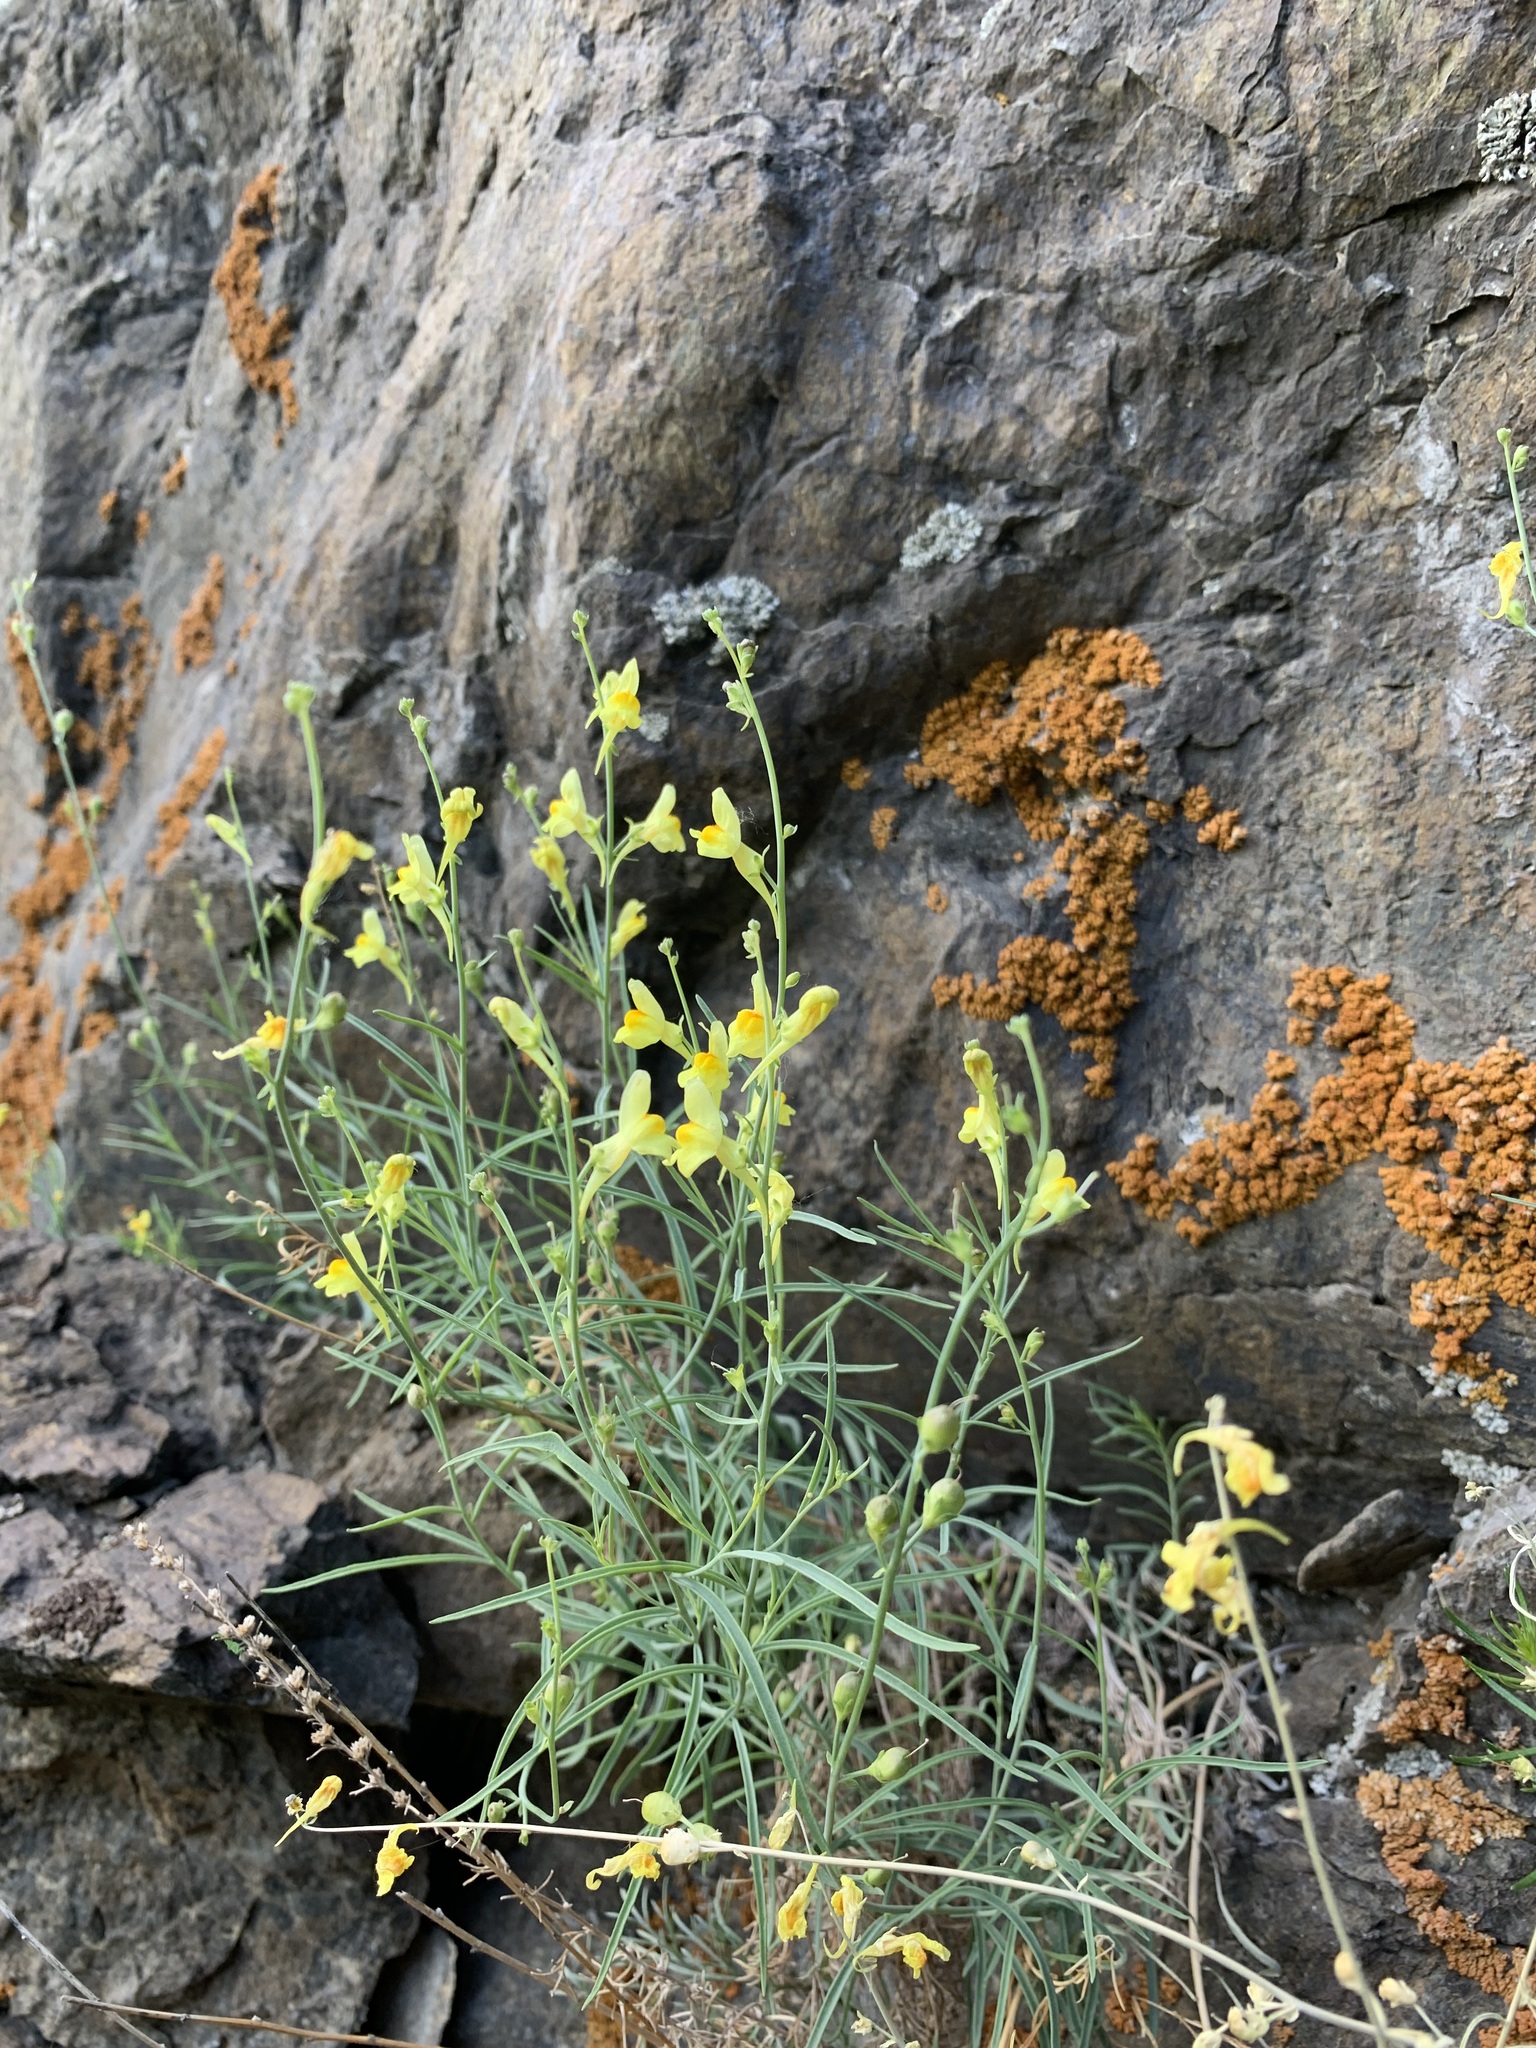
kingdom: Plantae
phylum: Tracheophyta
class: Magnoliopsida
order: Lamiales
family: Plantaginaceae
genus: Linaria
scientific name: Linaria odora
